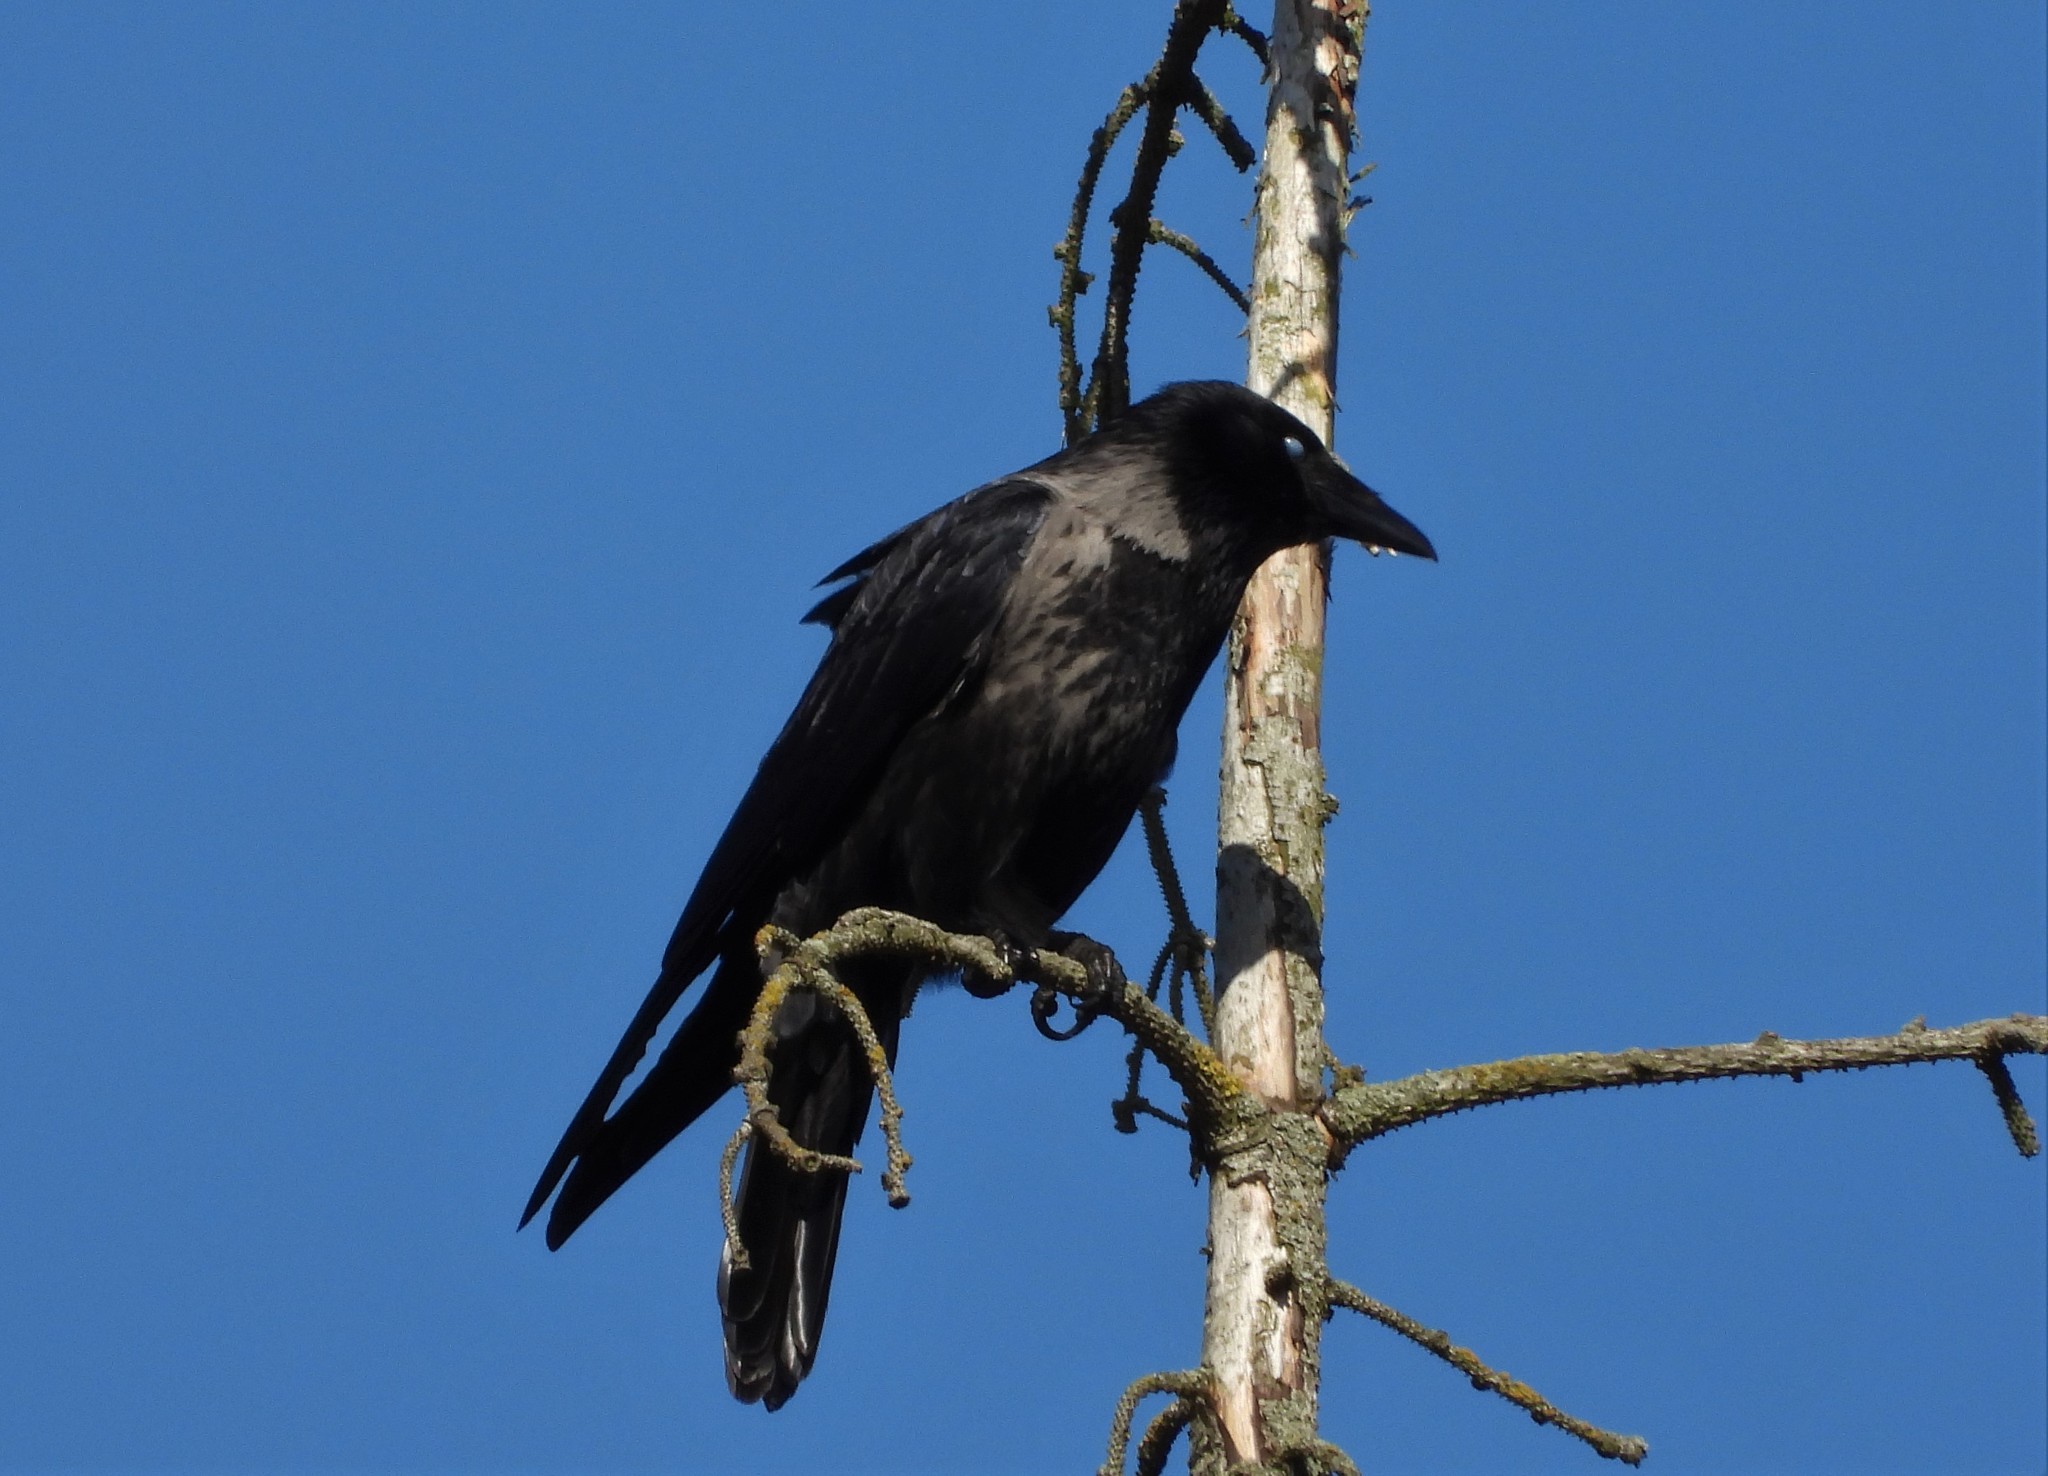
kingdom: Animalia
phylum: Chordata
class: Aves
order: Passeriformes
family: Corvidae
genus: Corvus
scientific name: Corvus
